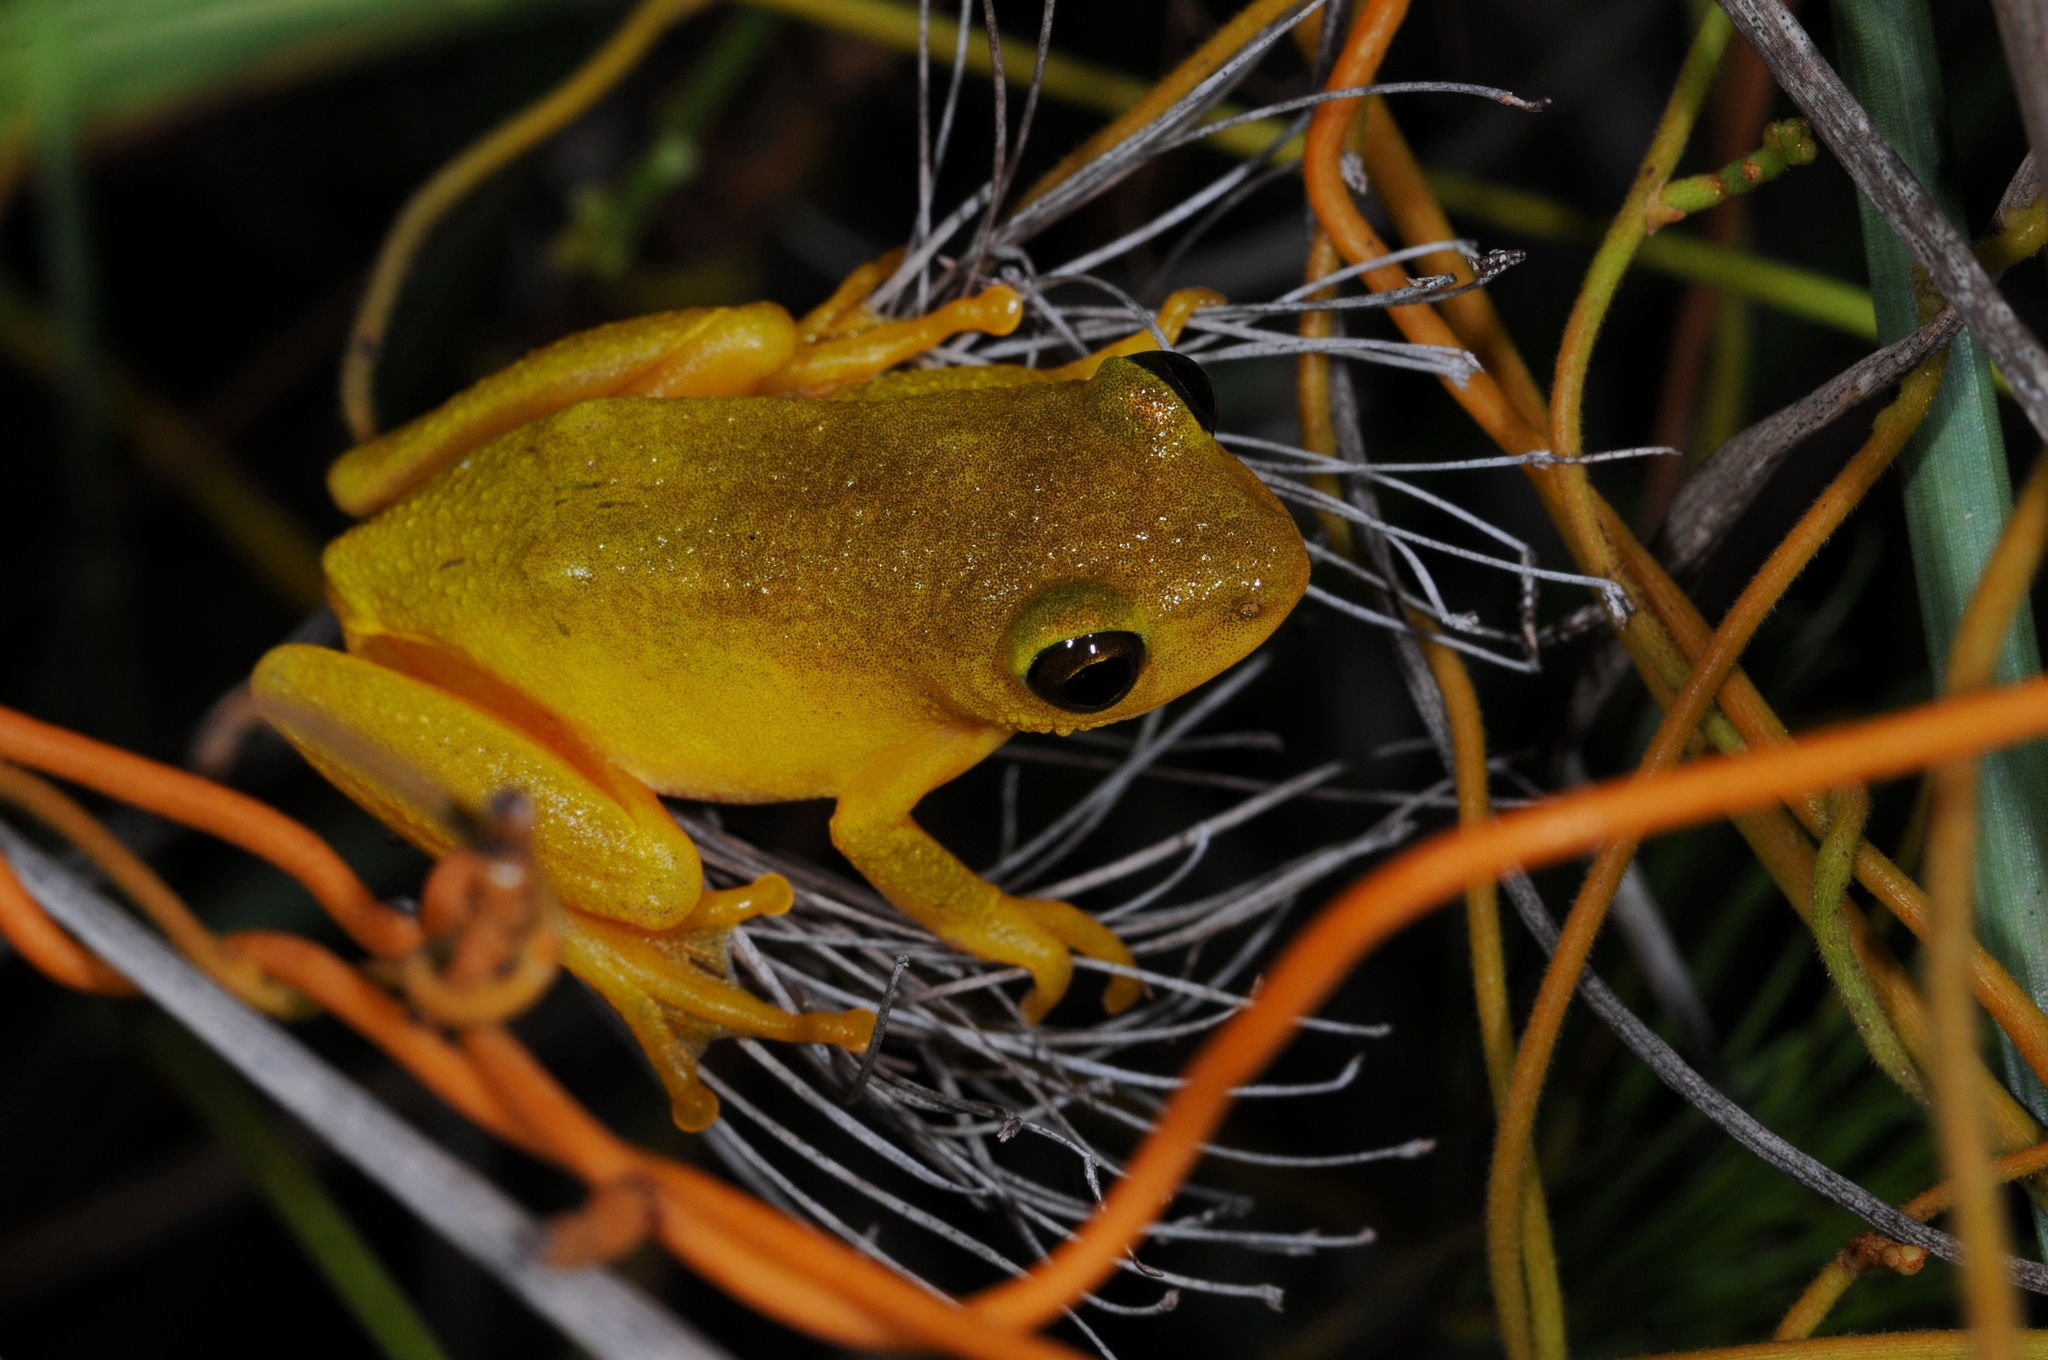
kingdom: Animalia
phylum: Chordata
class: Amphibia
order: Anura
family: Hyperoliidae
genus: Hyperolius
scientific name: Hyperolius tuberilinguis
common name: Tinker reed frog
